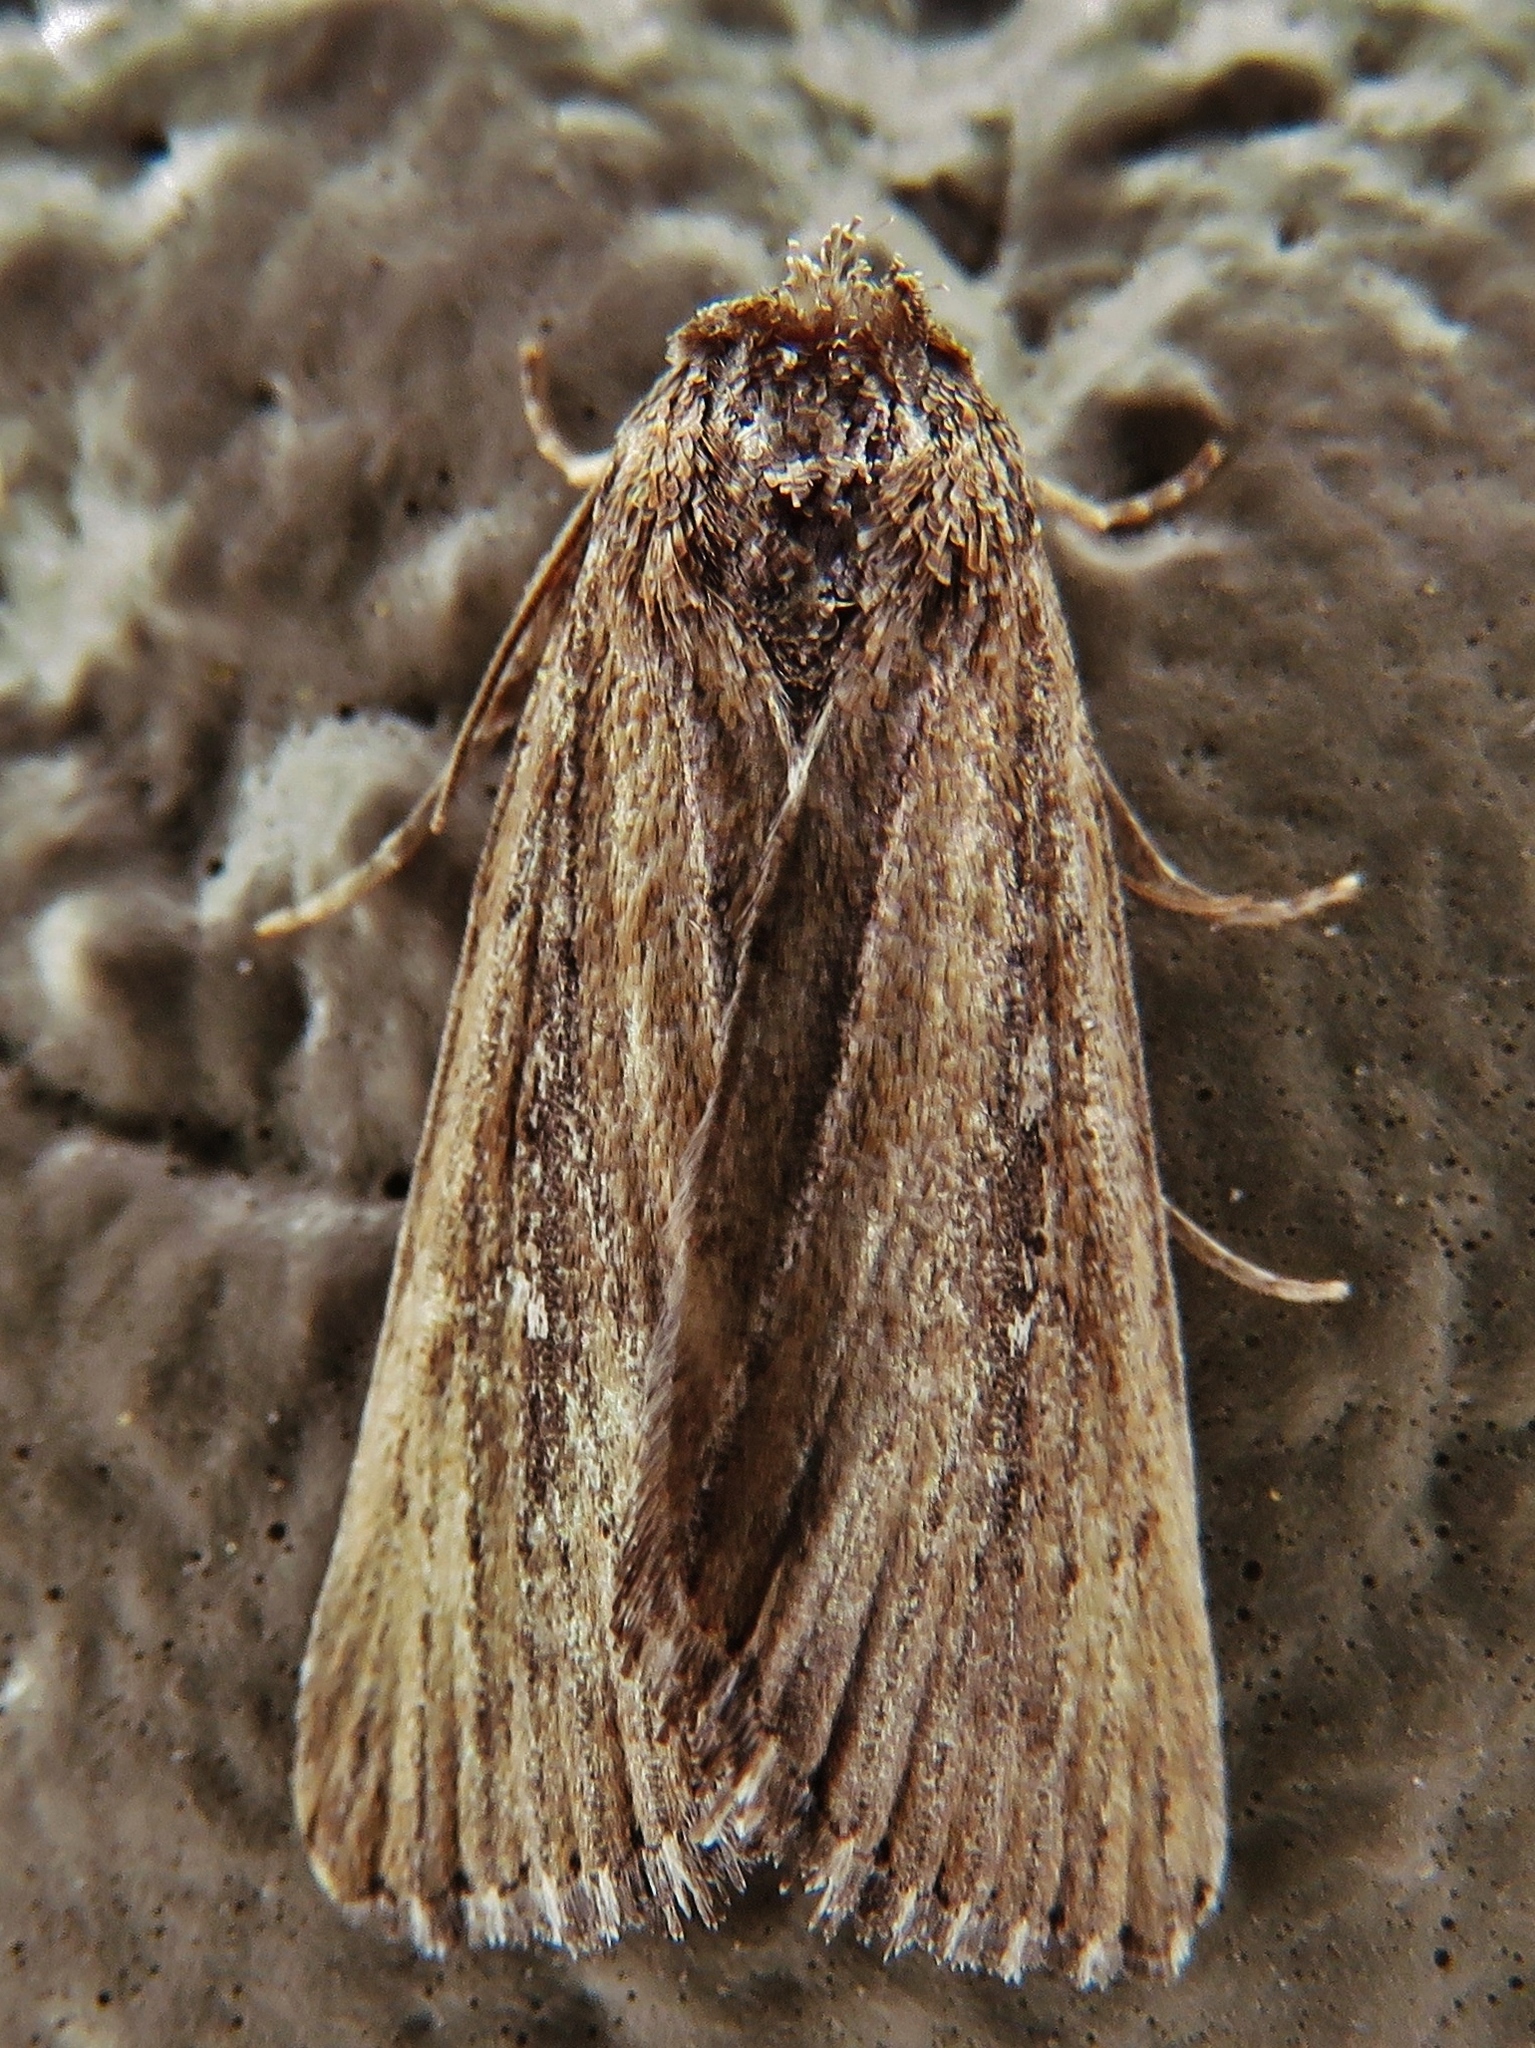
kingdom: Animalia
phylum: Arthropoda
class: Insecta
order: Lepidoptera
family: Noctuidae
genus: Condica
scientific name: Condica videns
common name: White-dotted groundling
